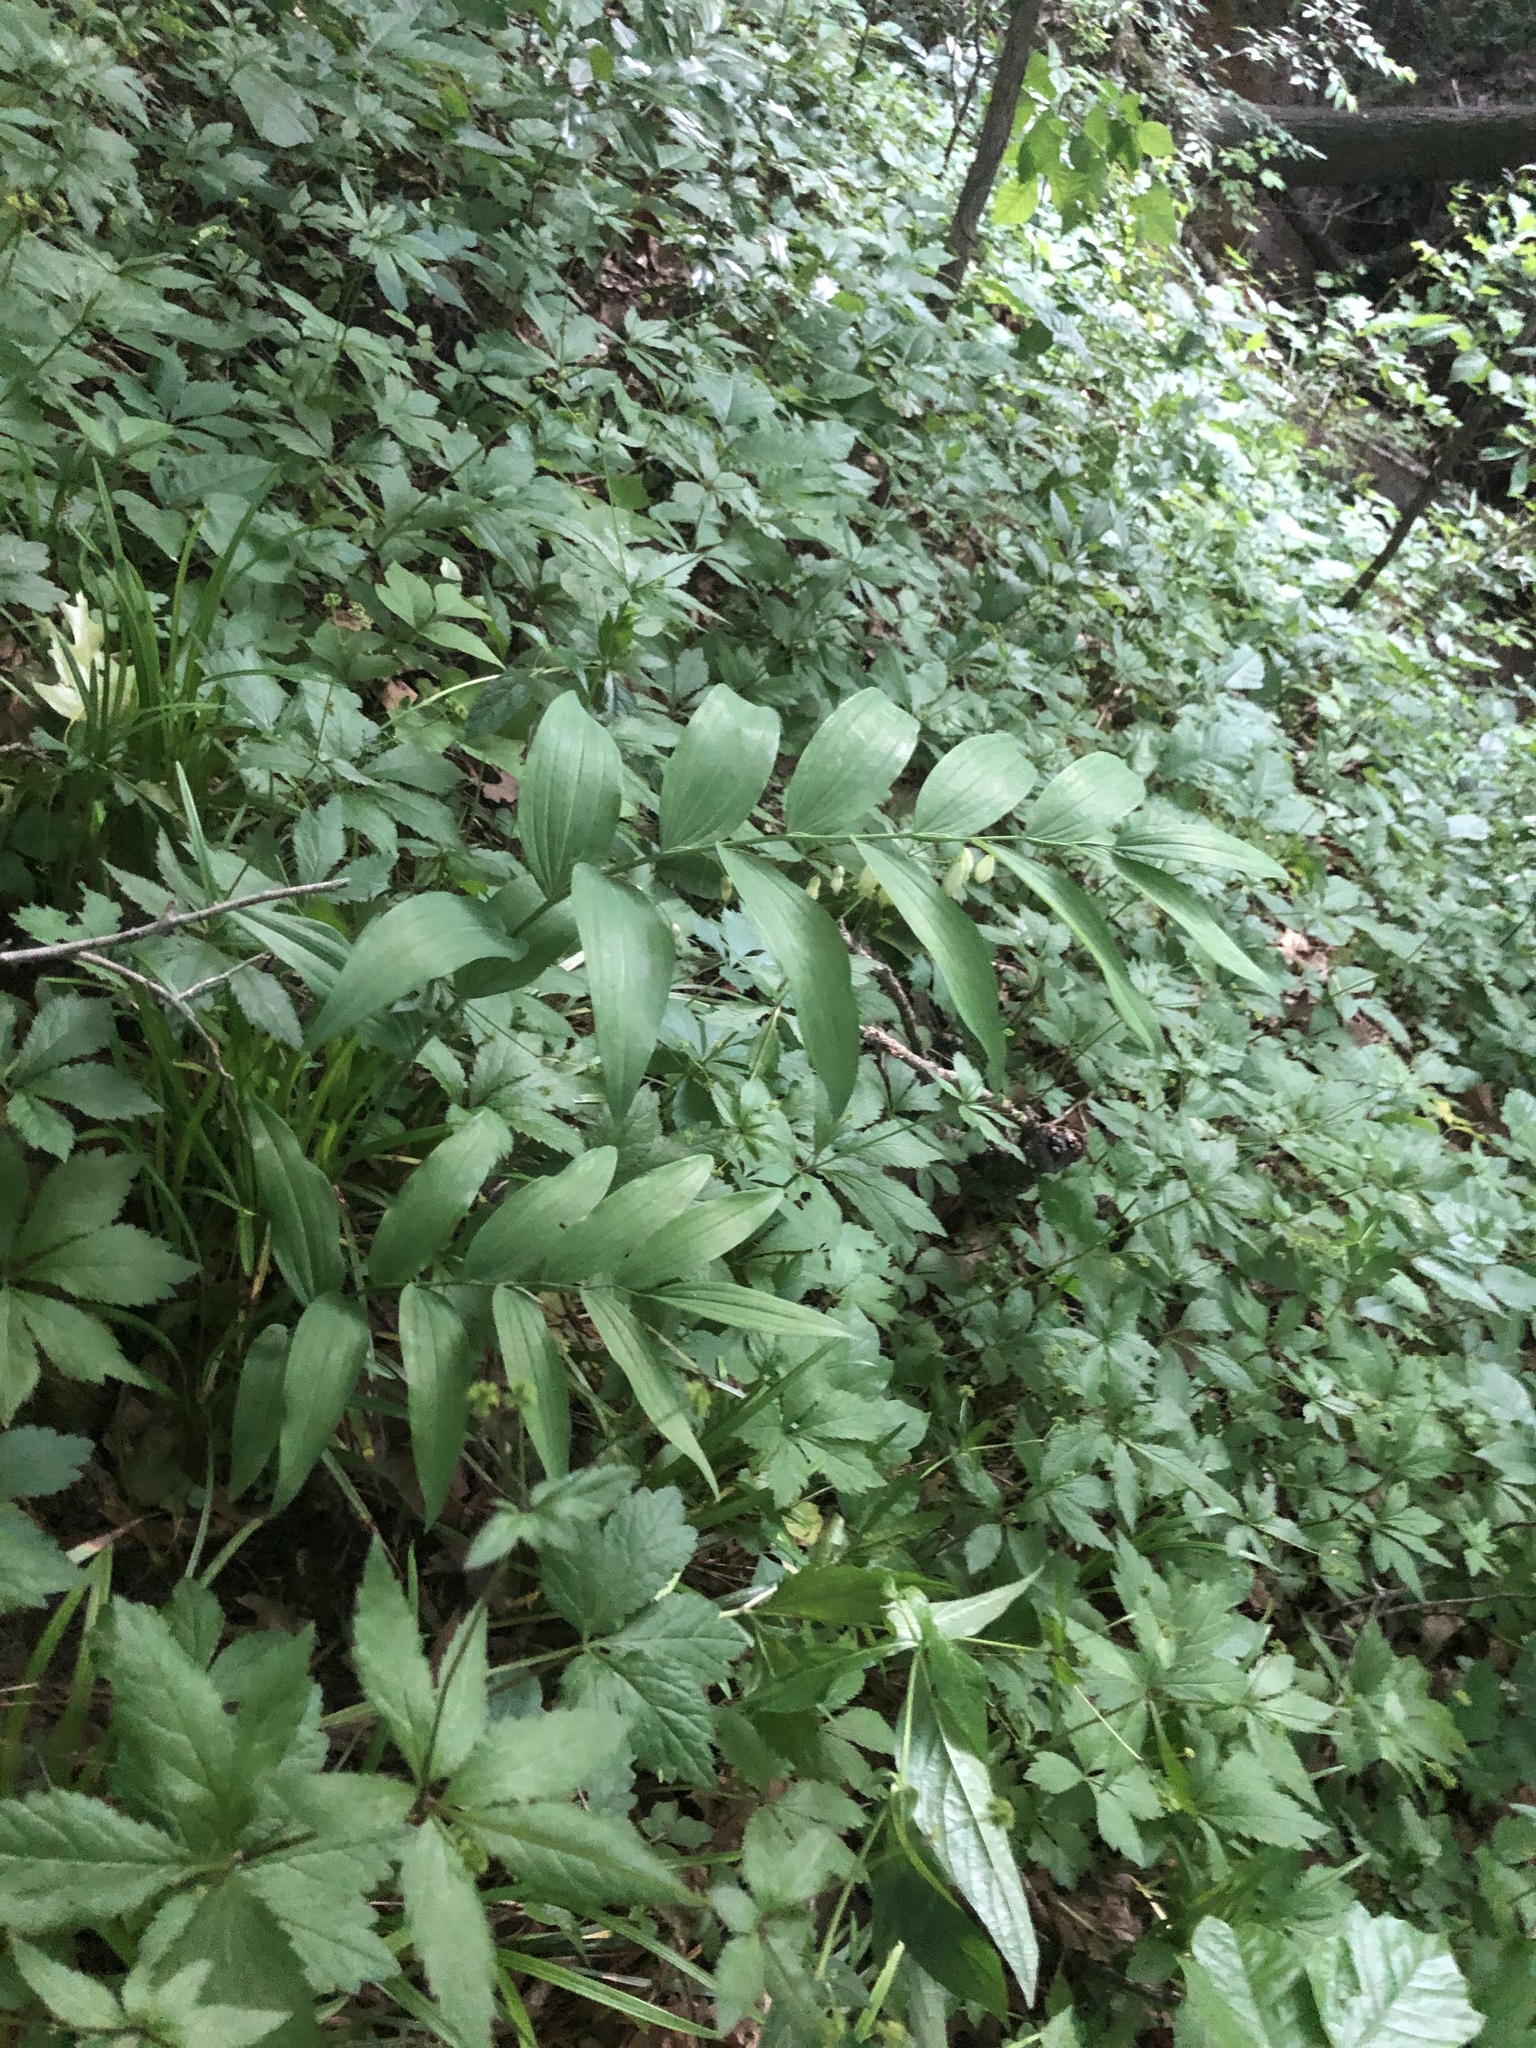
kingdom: Plantae
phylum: Tracheophyta
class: Liliopsida
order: Asparagales
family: Asparagaceae
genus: Polygonatum
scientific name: Polygonatum biflorum
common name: American solomon's-seal
